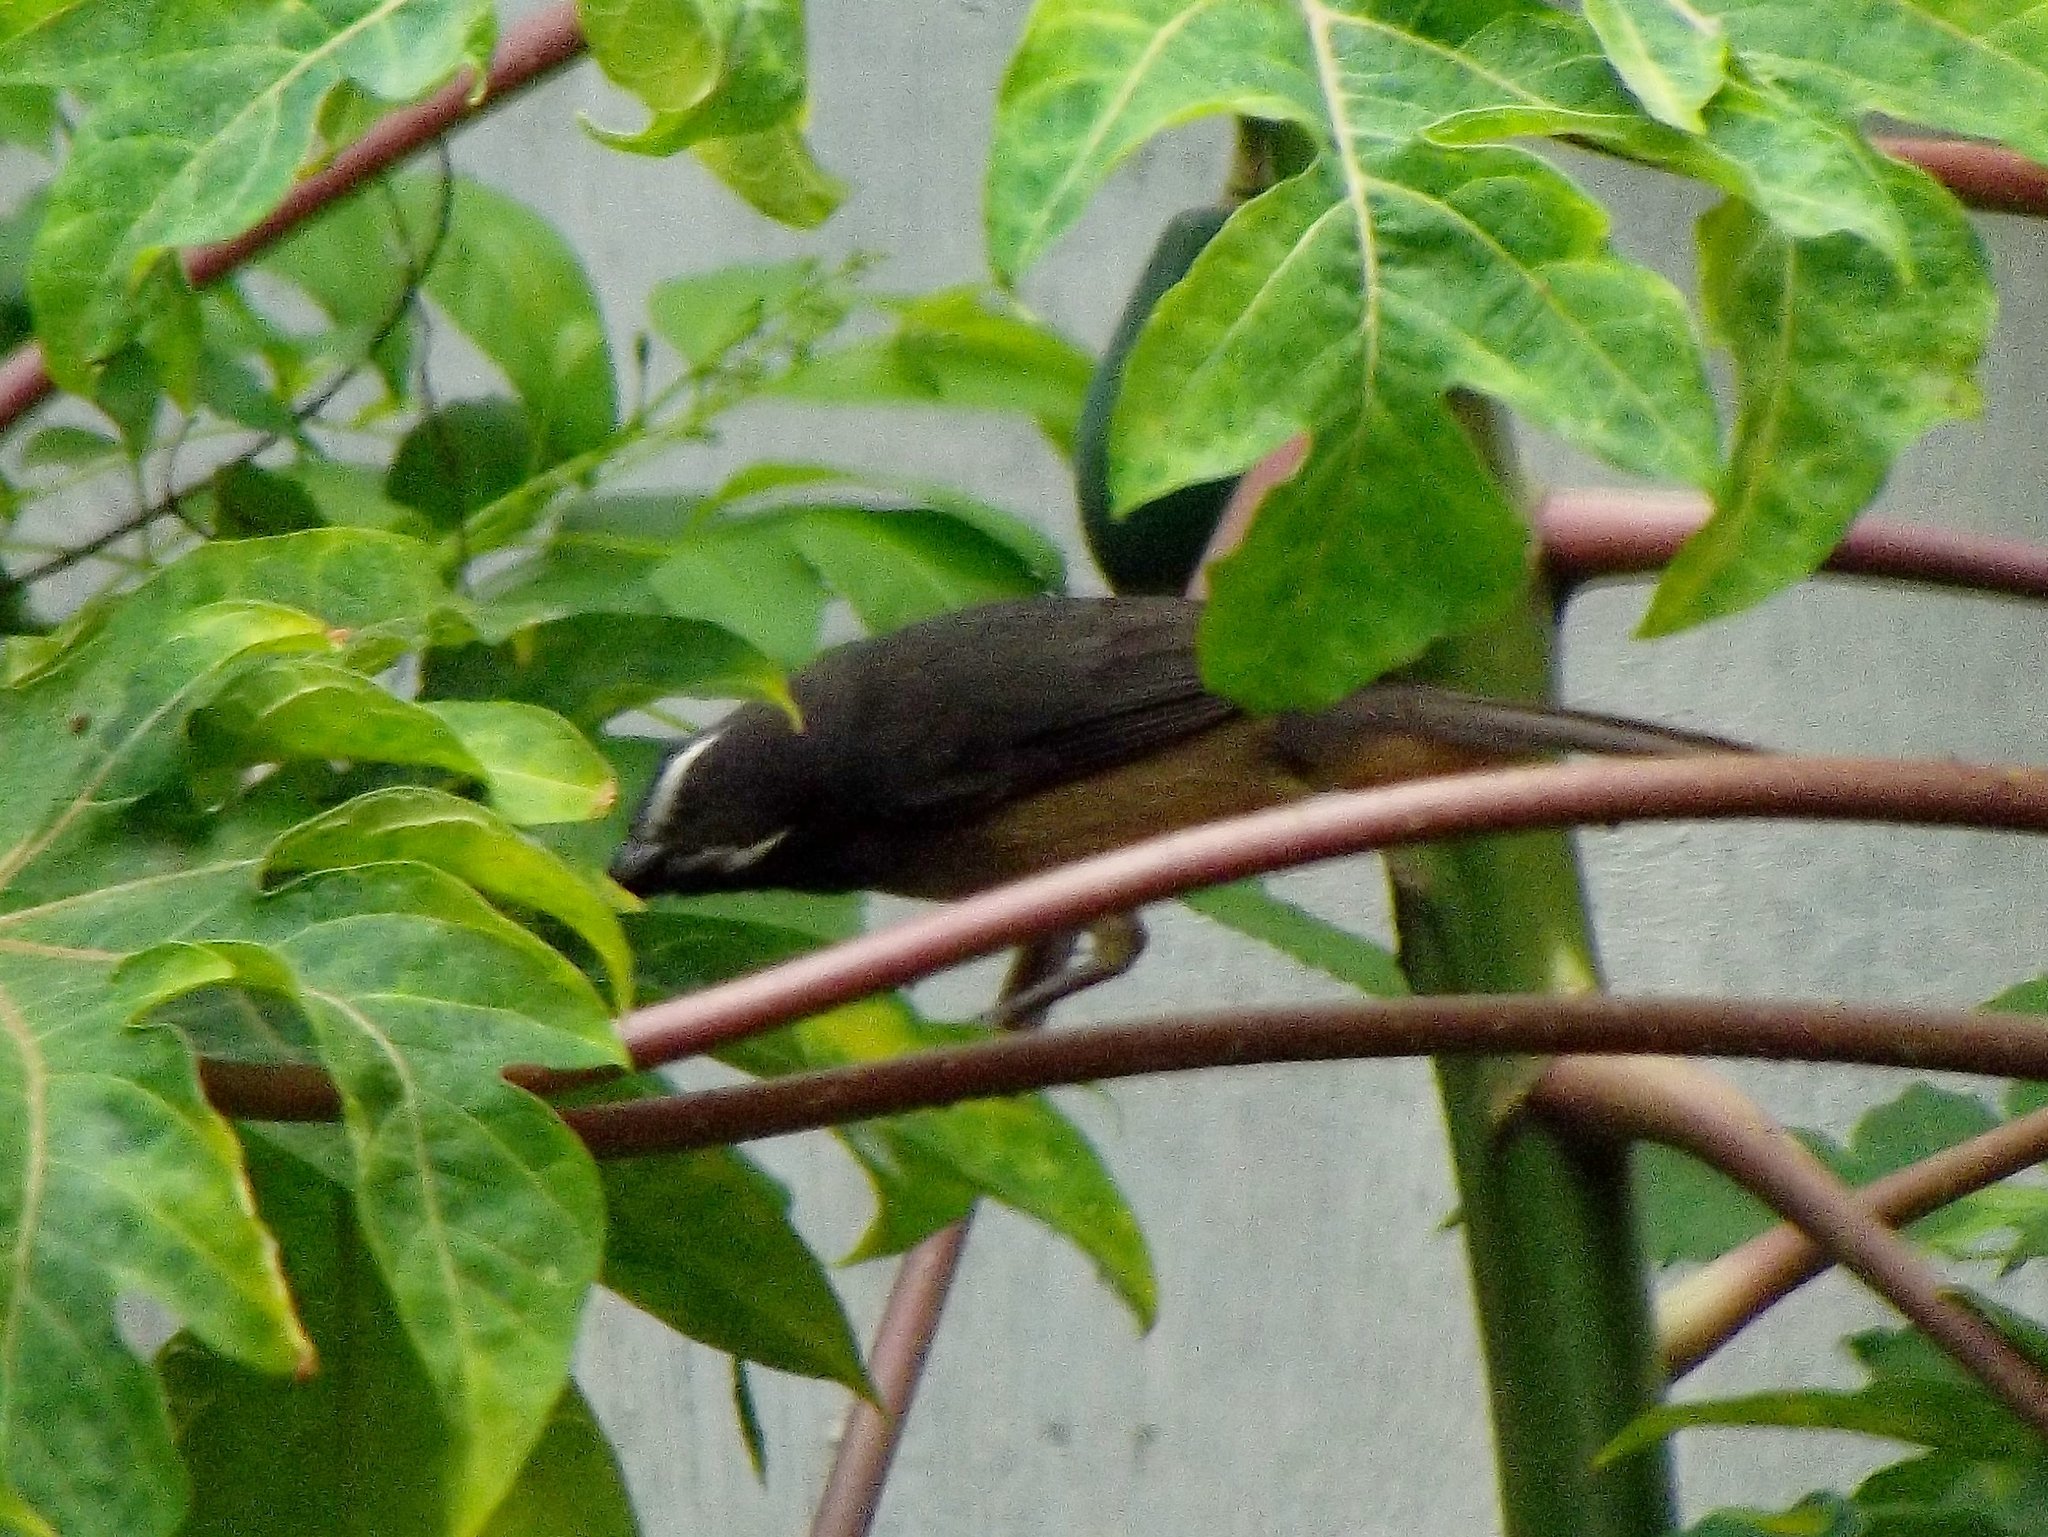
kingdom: Animalia
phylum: Chordata
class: Aves
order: Passeriformes
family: Thraupidae
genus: Saltator
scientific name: Saltator grandis
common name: Cinnamon-bellied saltator
